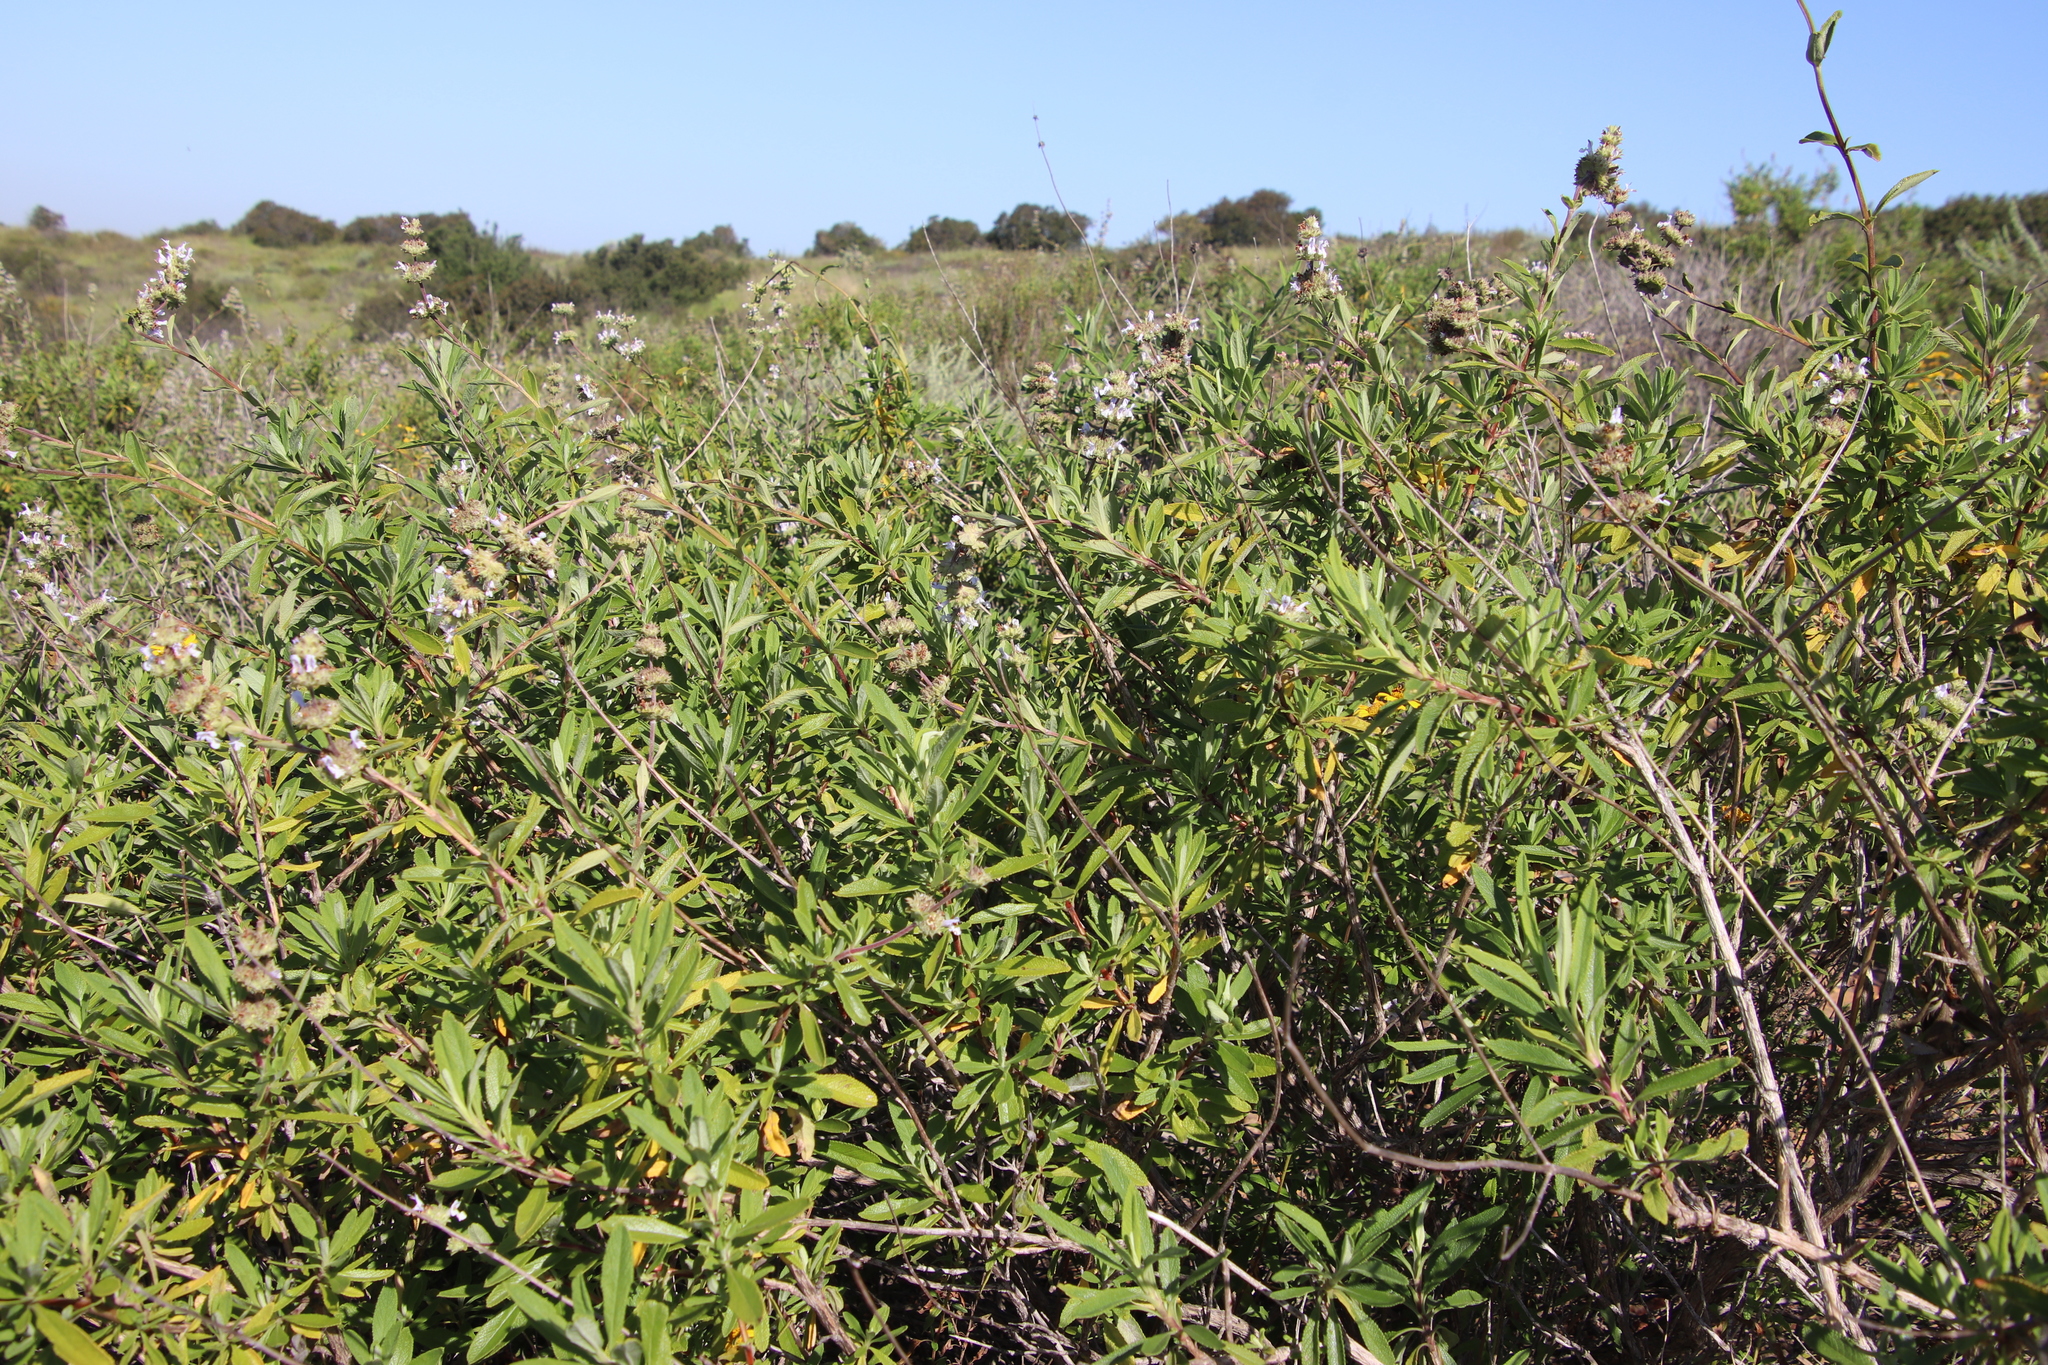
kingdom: Plantae
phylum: Tracheophyta
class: Magnoliopsida
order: Lamiales
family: Lamiaceae
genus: Salvia
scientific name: Salvia mellifera
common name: Black sage
